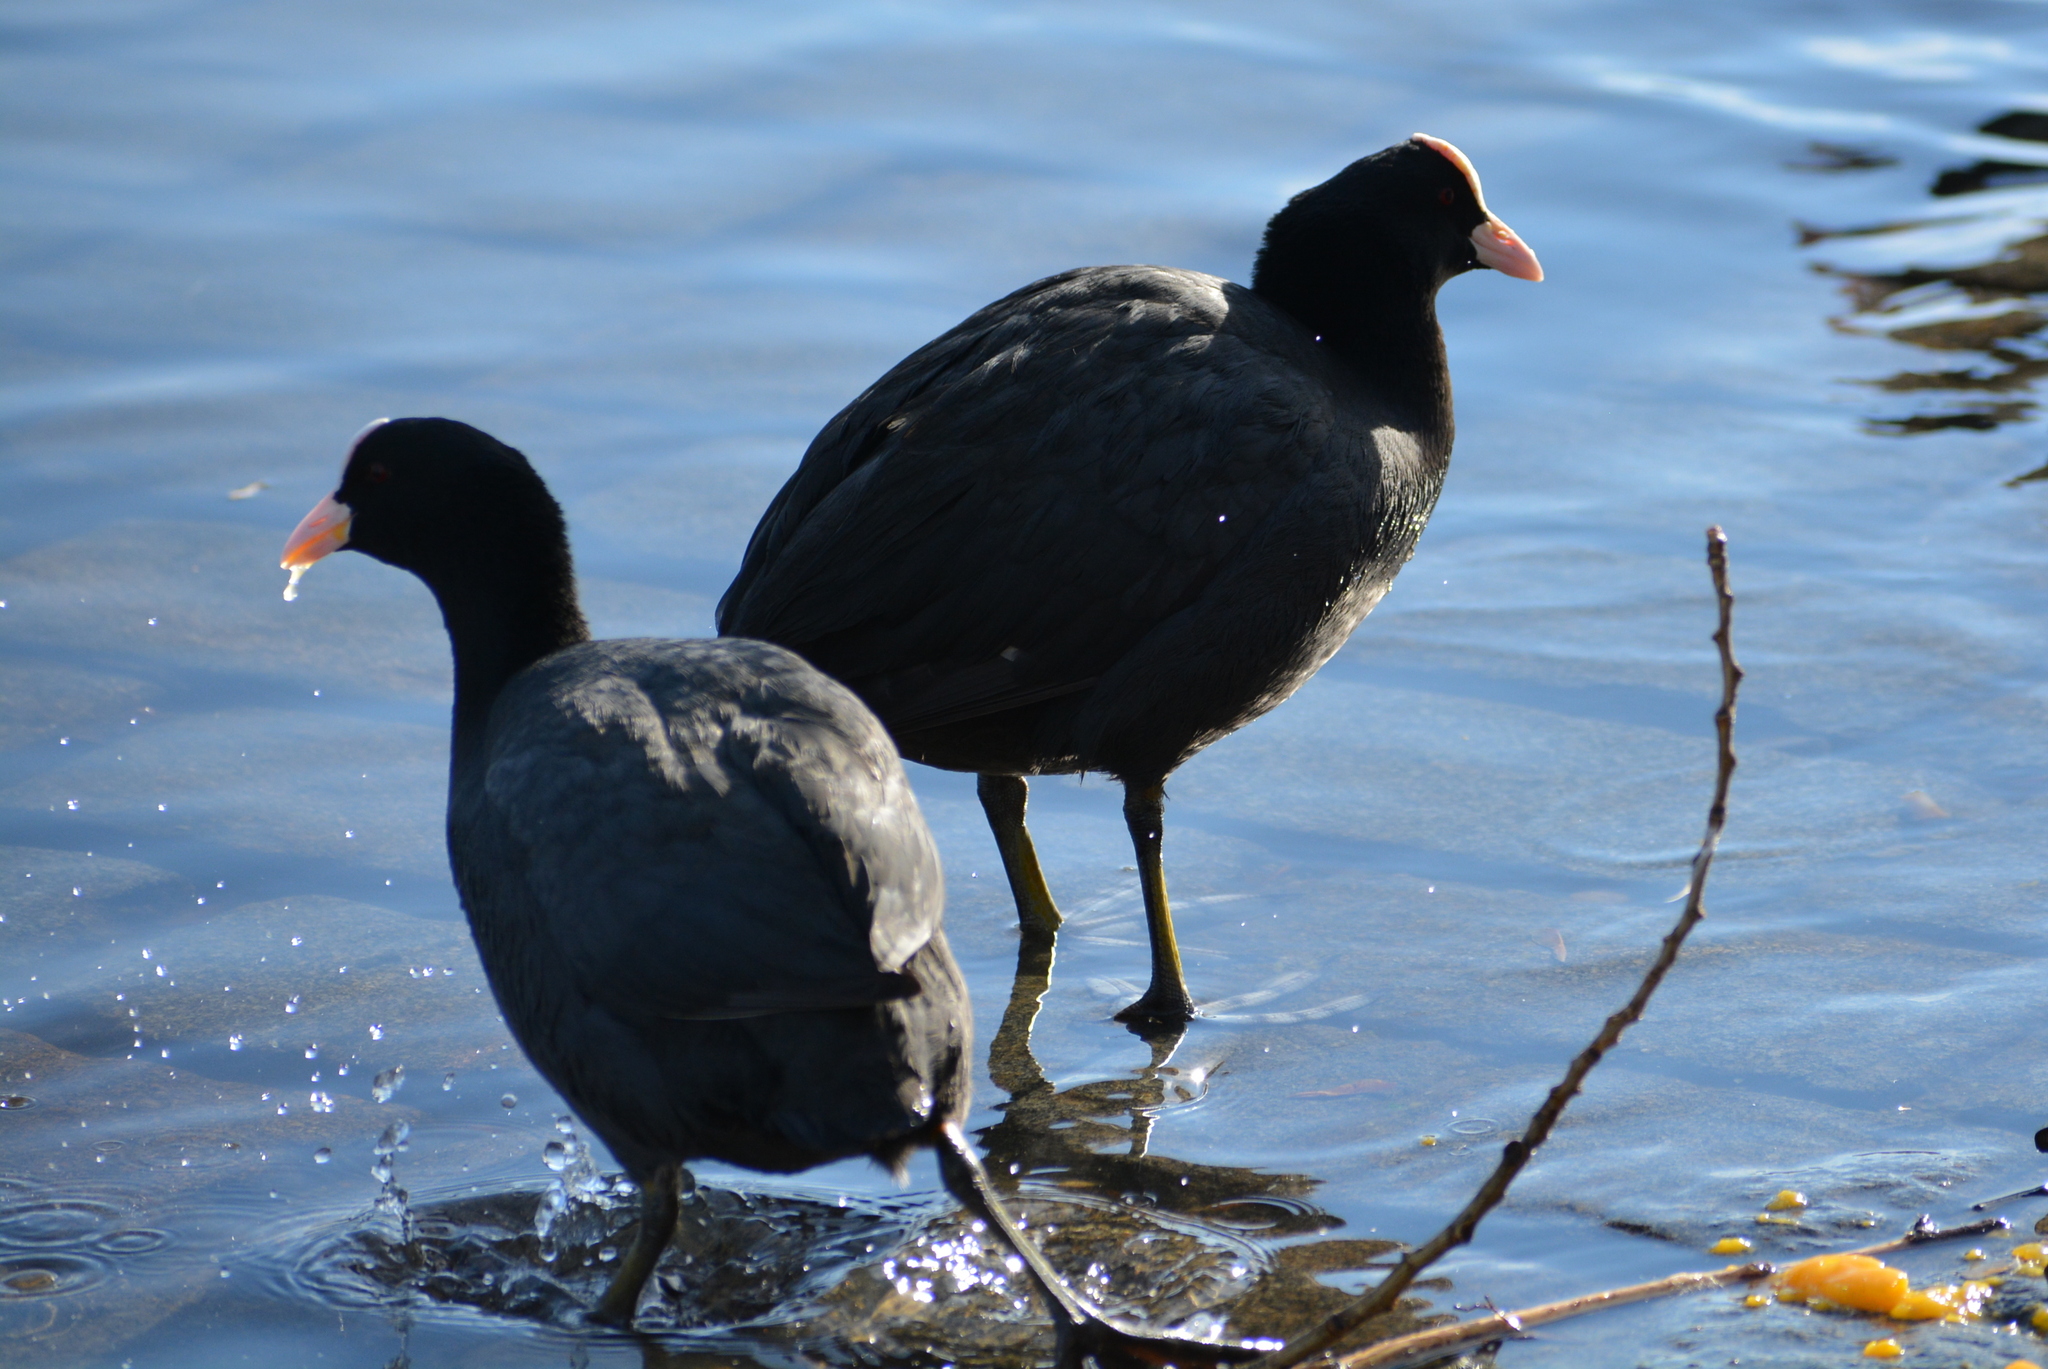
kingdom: Animalia
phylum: Chordata
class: Aves
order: Gruiformes
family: Rallidae
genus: Fulica
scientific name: Fulica atra
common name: Eurasian coot
